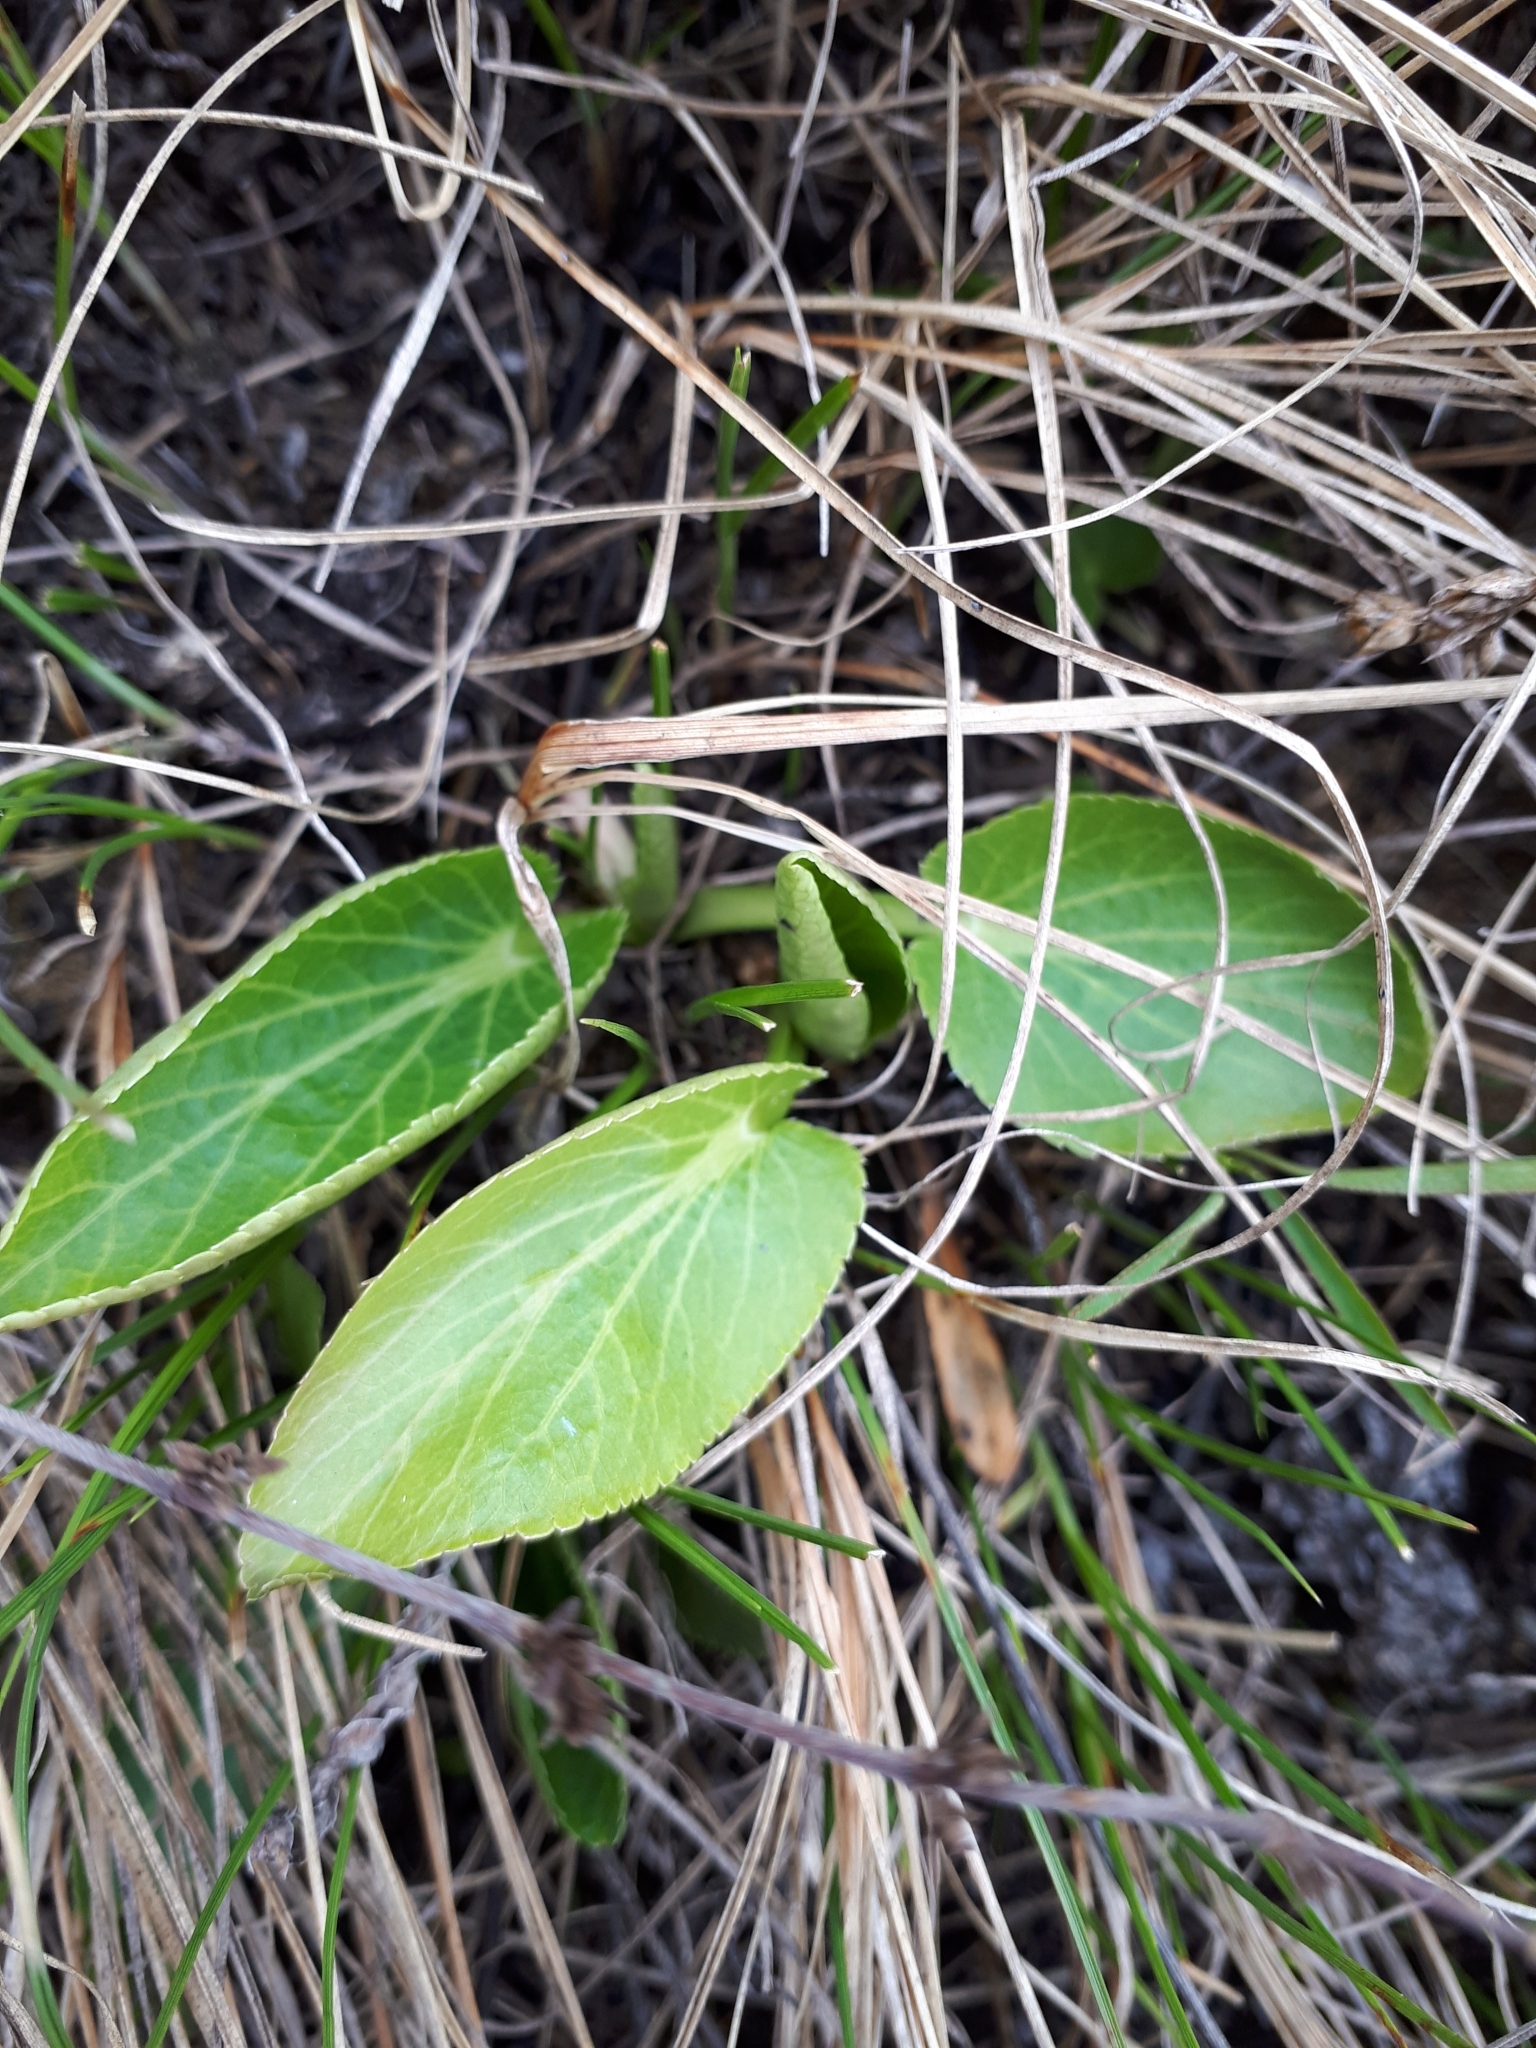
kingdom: Plantae
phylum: Tracheophyta
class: Magnoliopsida
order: Apiales
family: Apiaceae
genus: Eryngium
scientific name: Eryngium planum
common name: Blue eryngo
